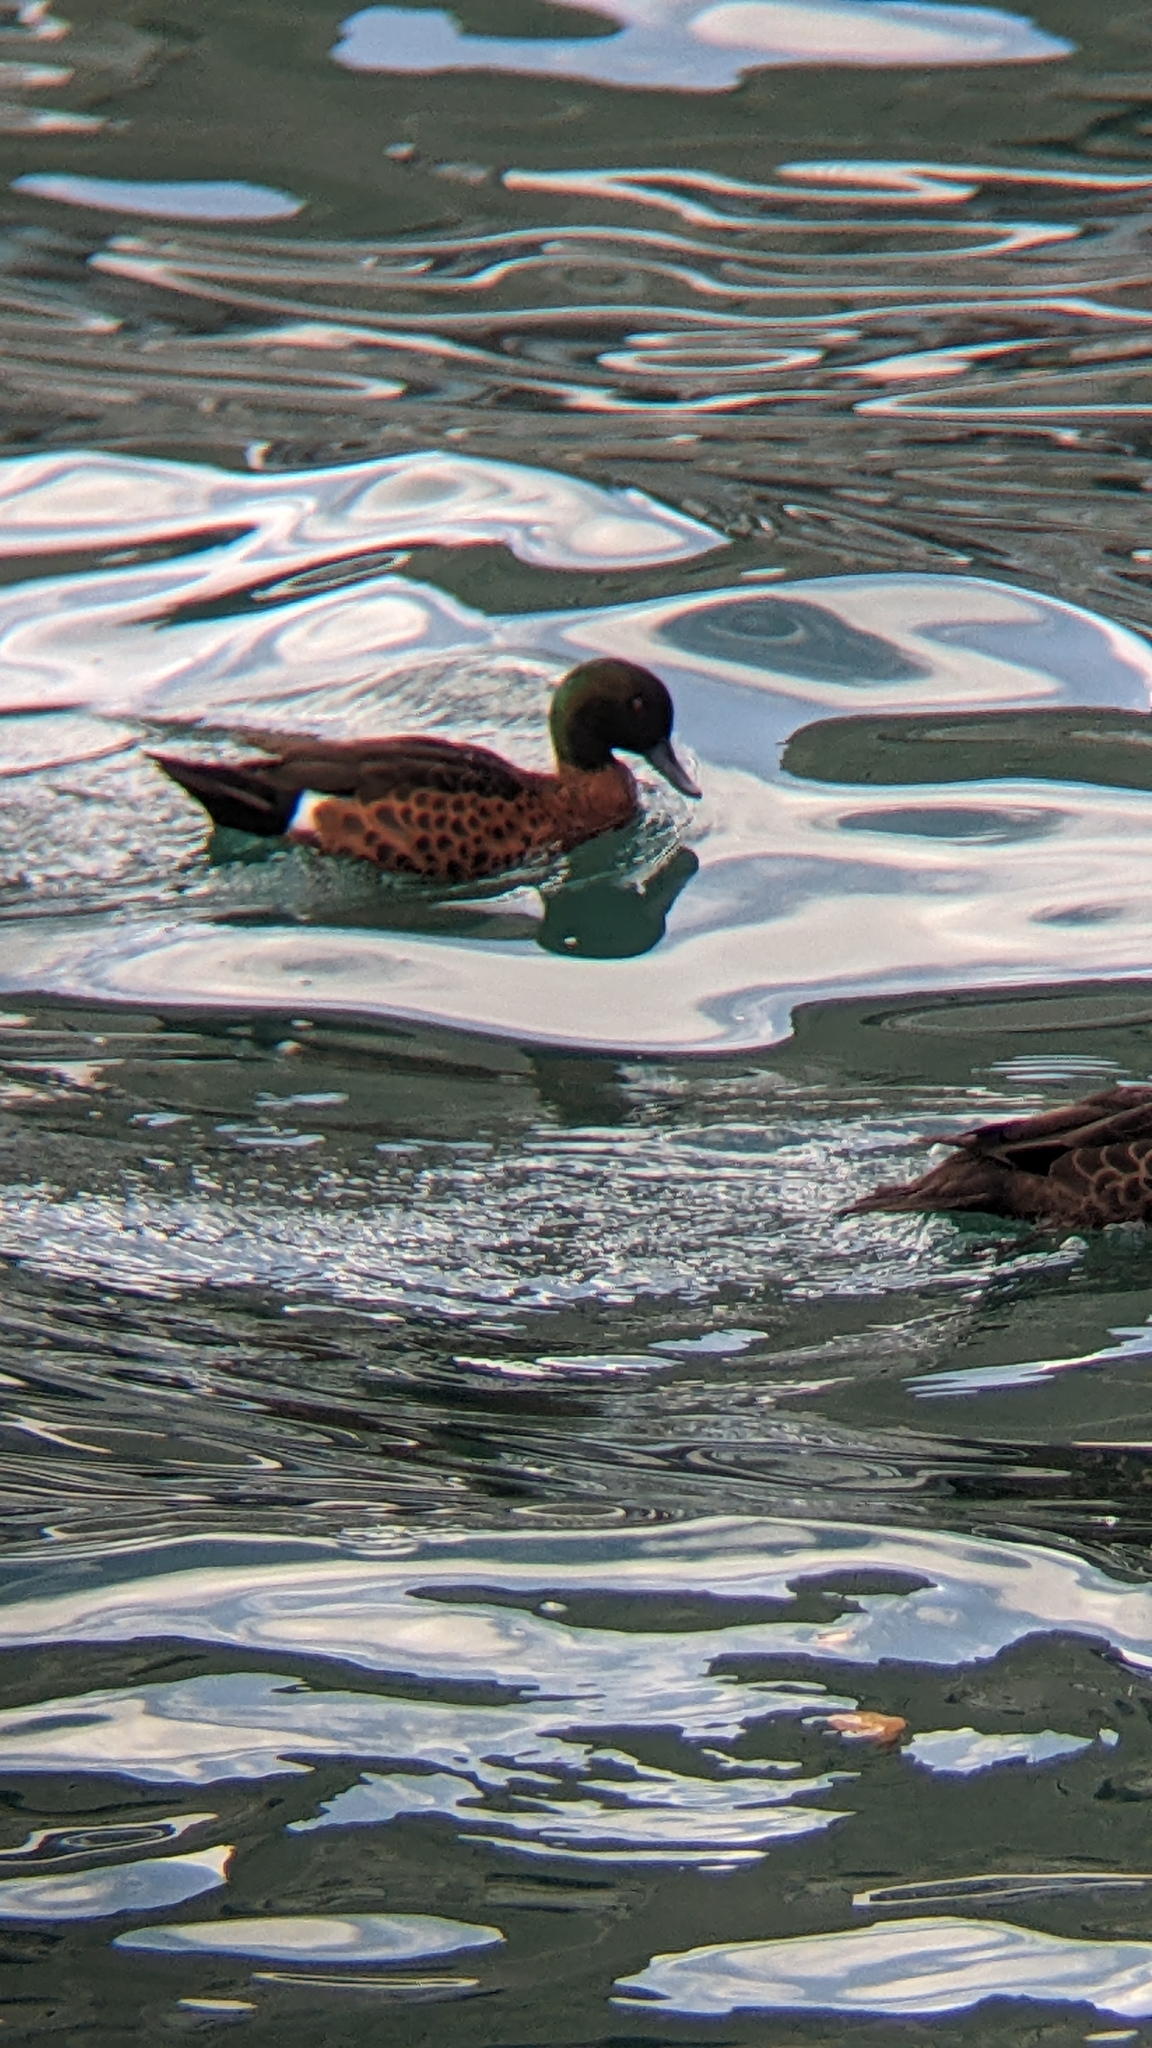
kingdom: Animalia
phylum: Chordata
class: Aves
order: Anseriformes
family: Anatidae
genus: Anas
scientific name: Anas castanea
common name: Chestnut teal
